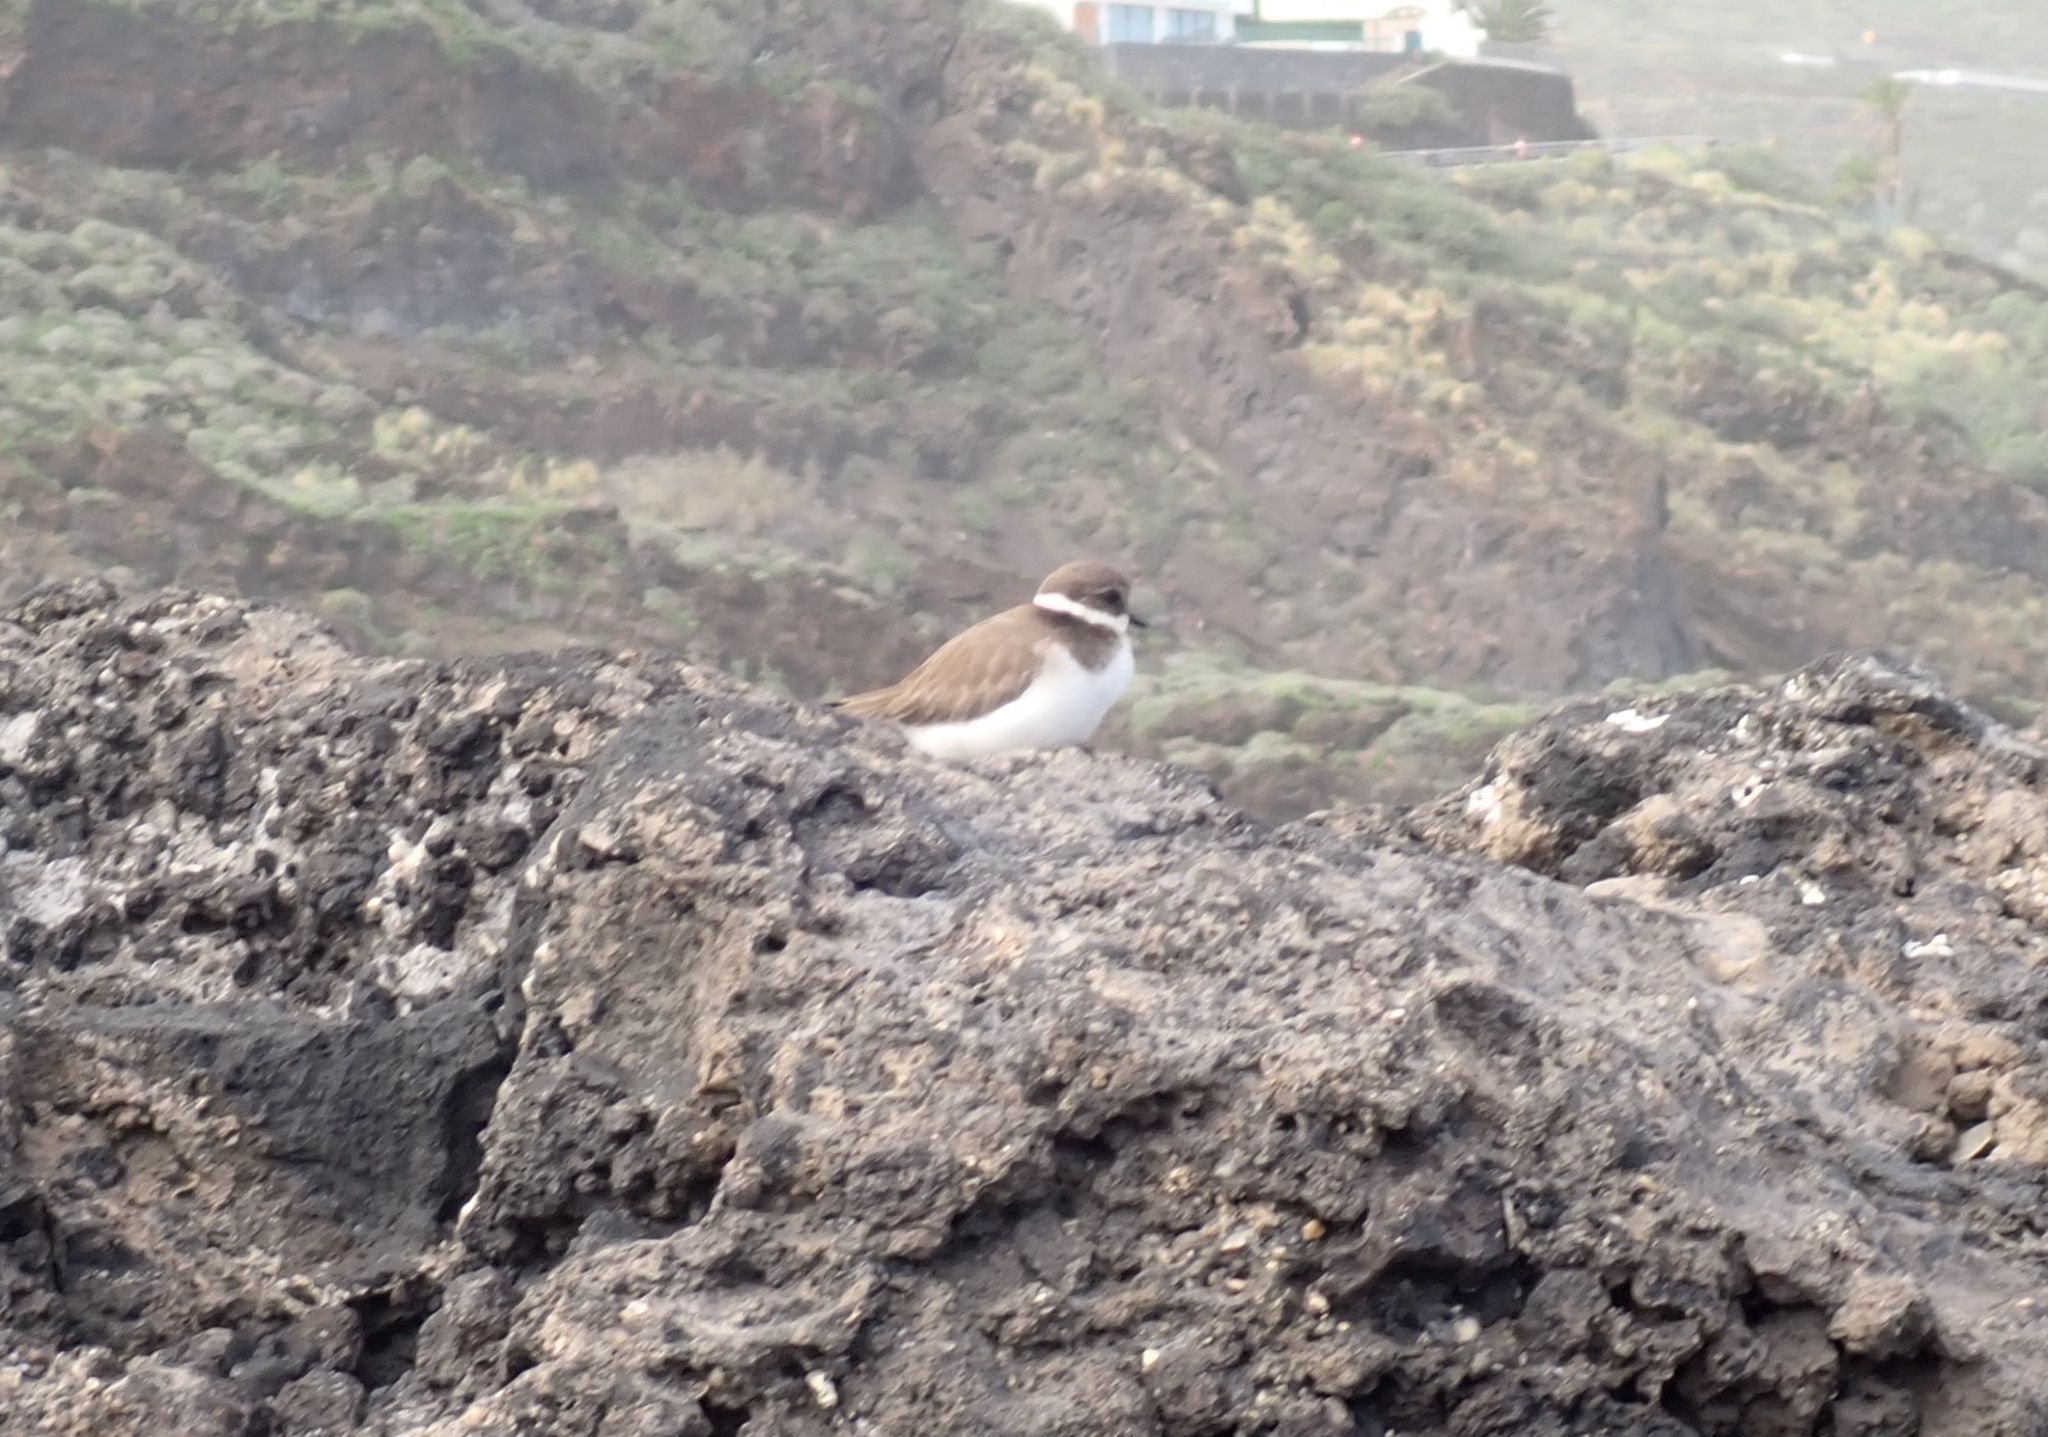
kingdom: Animalia
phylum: Chordata
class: Aves
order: Charadriiformes
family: Charadriidae
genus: Charadrius
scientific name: Charadrius hiaticula
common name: Common ringed plover
